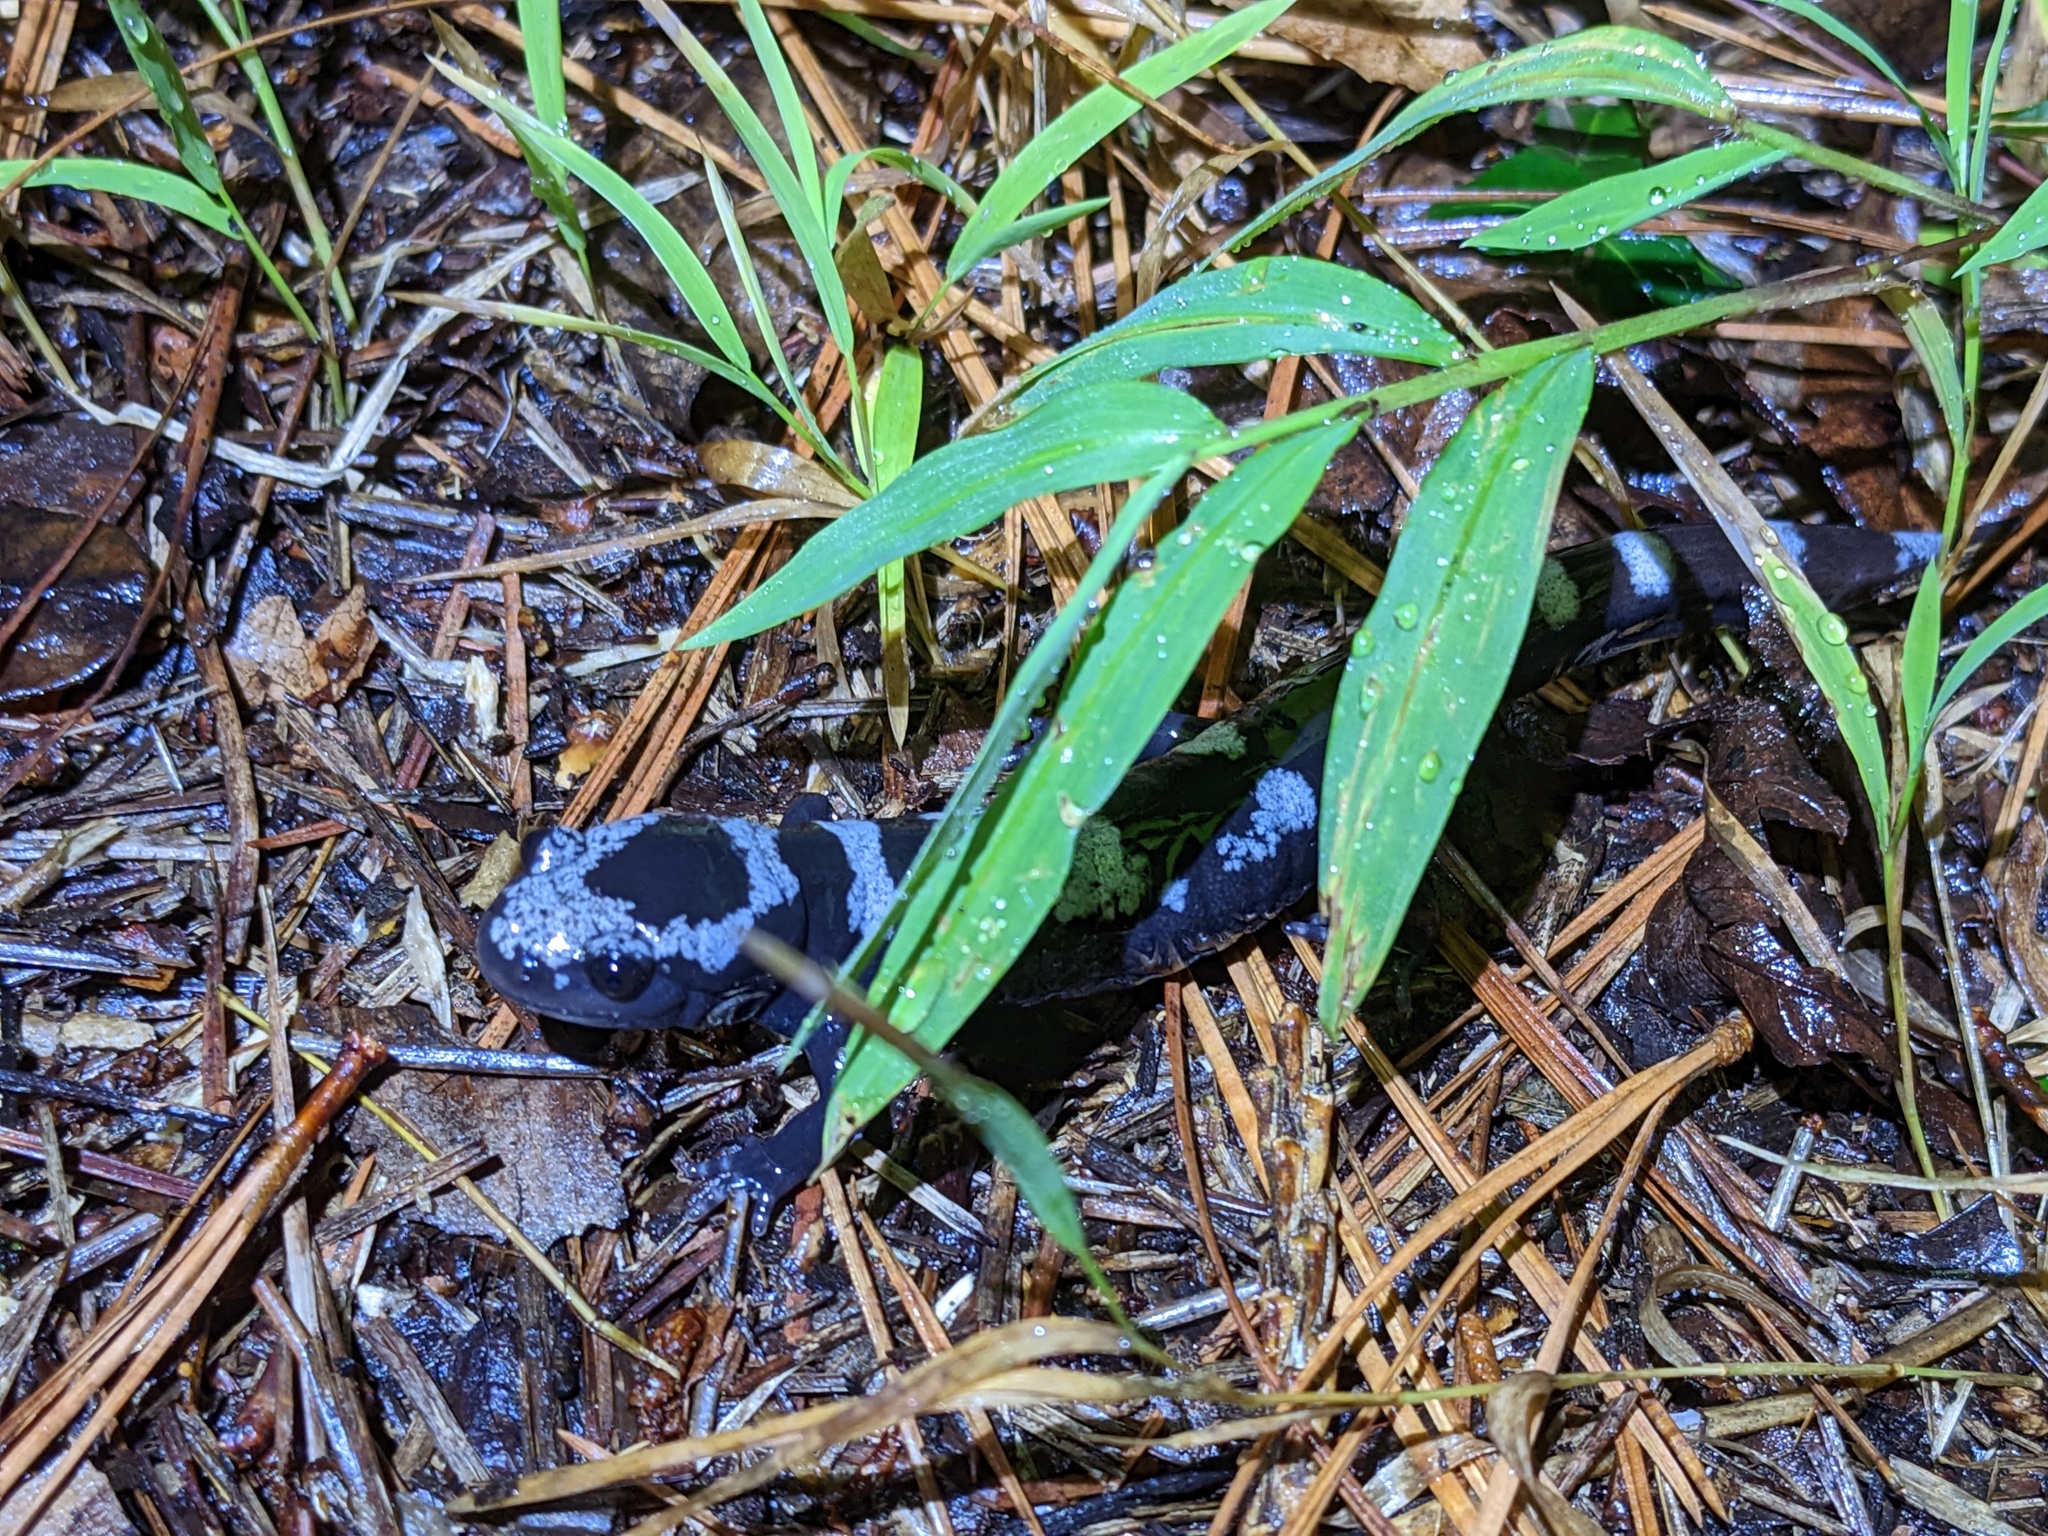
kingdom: Animalia
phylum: Chordata
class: Amphibia
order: Caudata
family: Ambystomatidae
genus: Ambystoma
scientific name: Ambystoma opacum
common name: Marbled salamander
